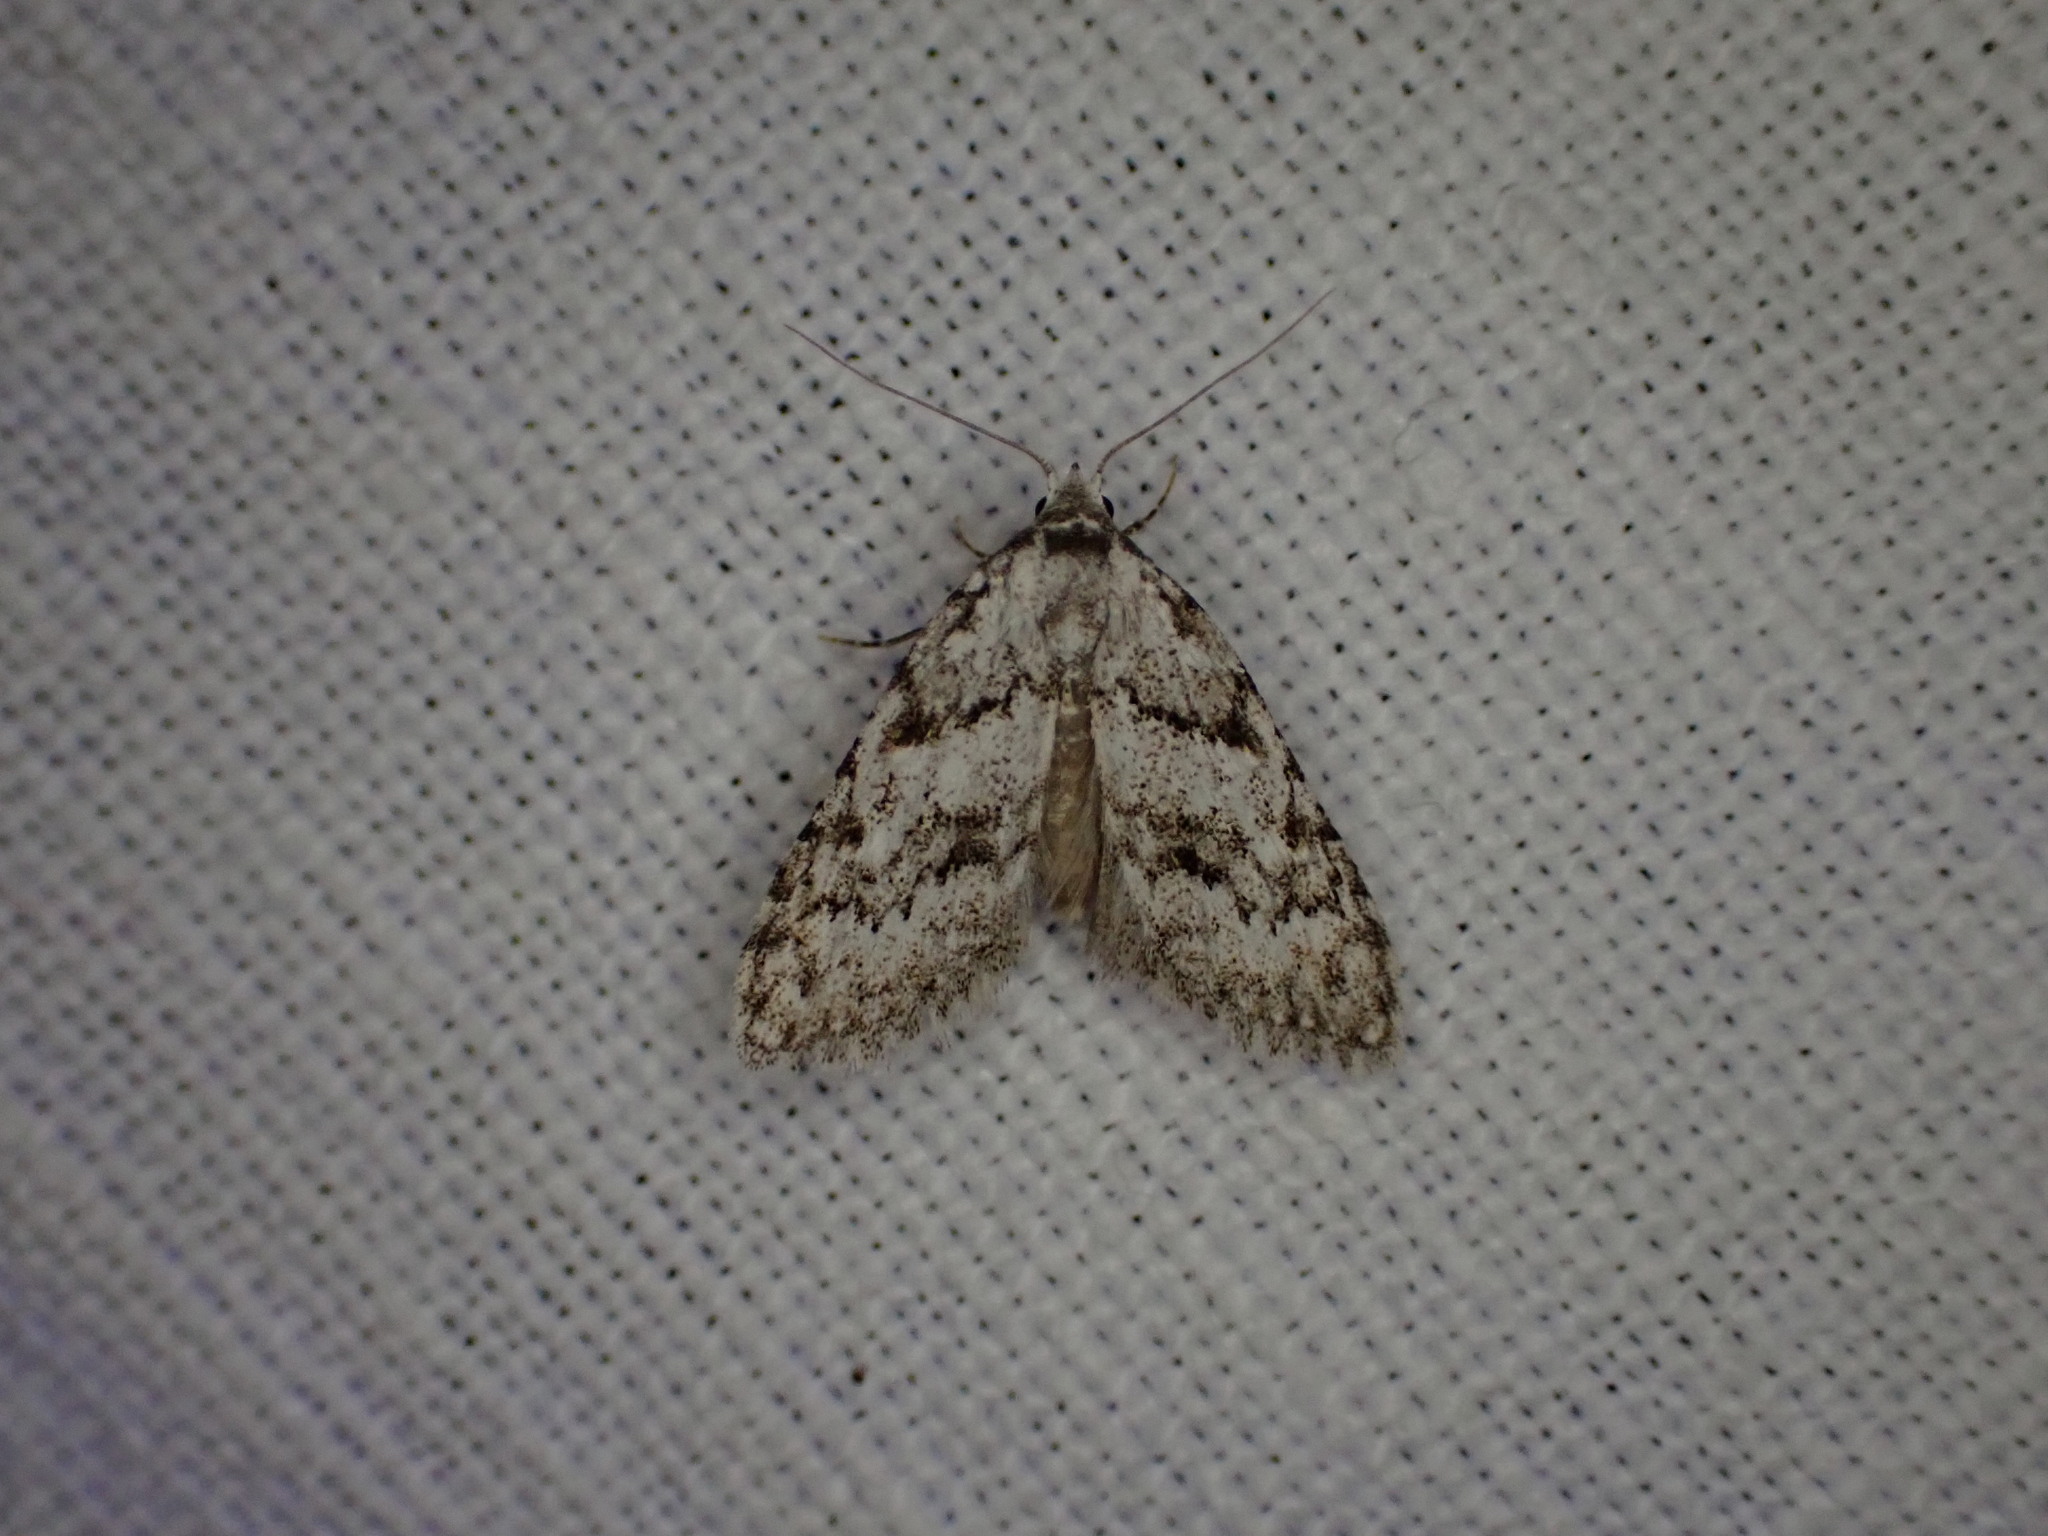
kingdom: Animalia
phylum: Arthropoda
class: Insecta
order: Lepidoptera
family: Nolidae
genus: Nola
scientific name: Nola cicatricalis
